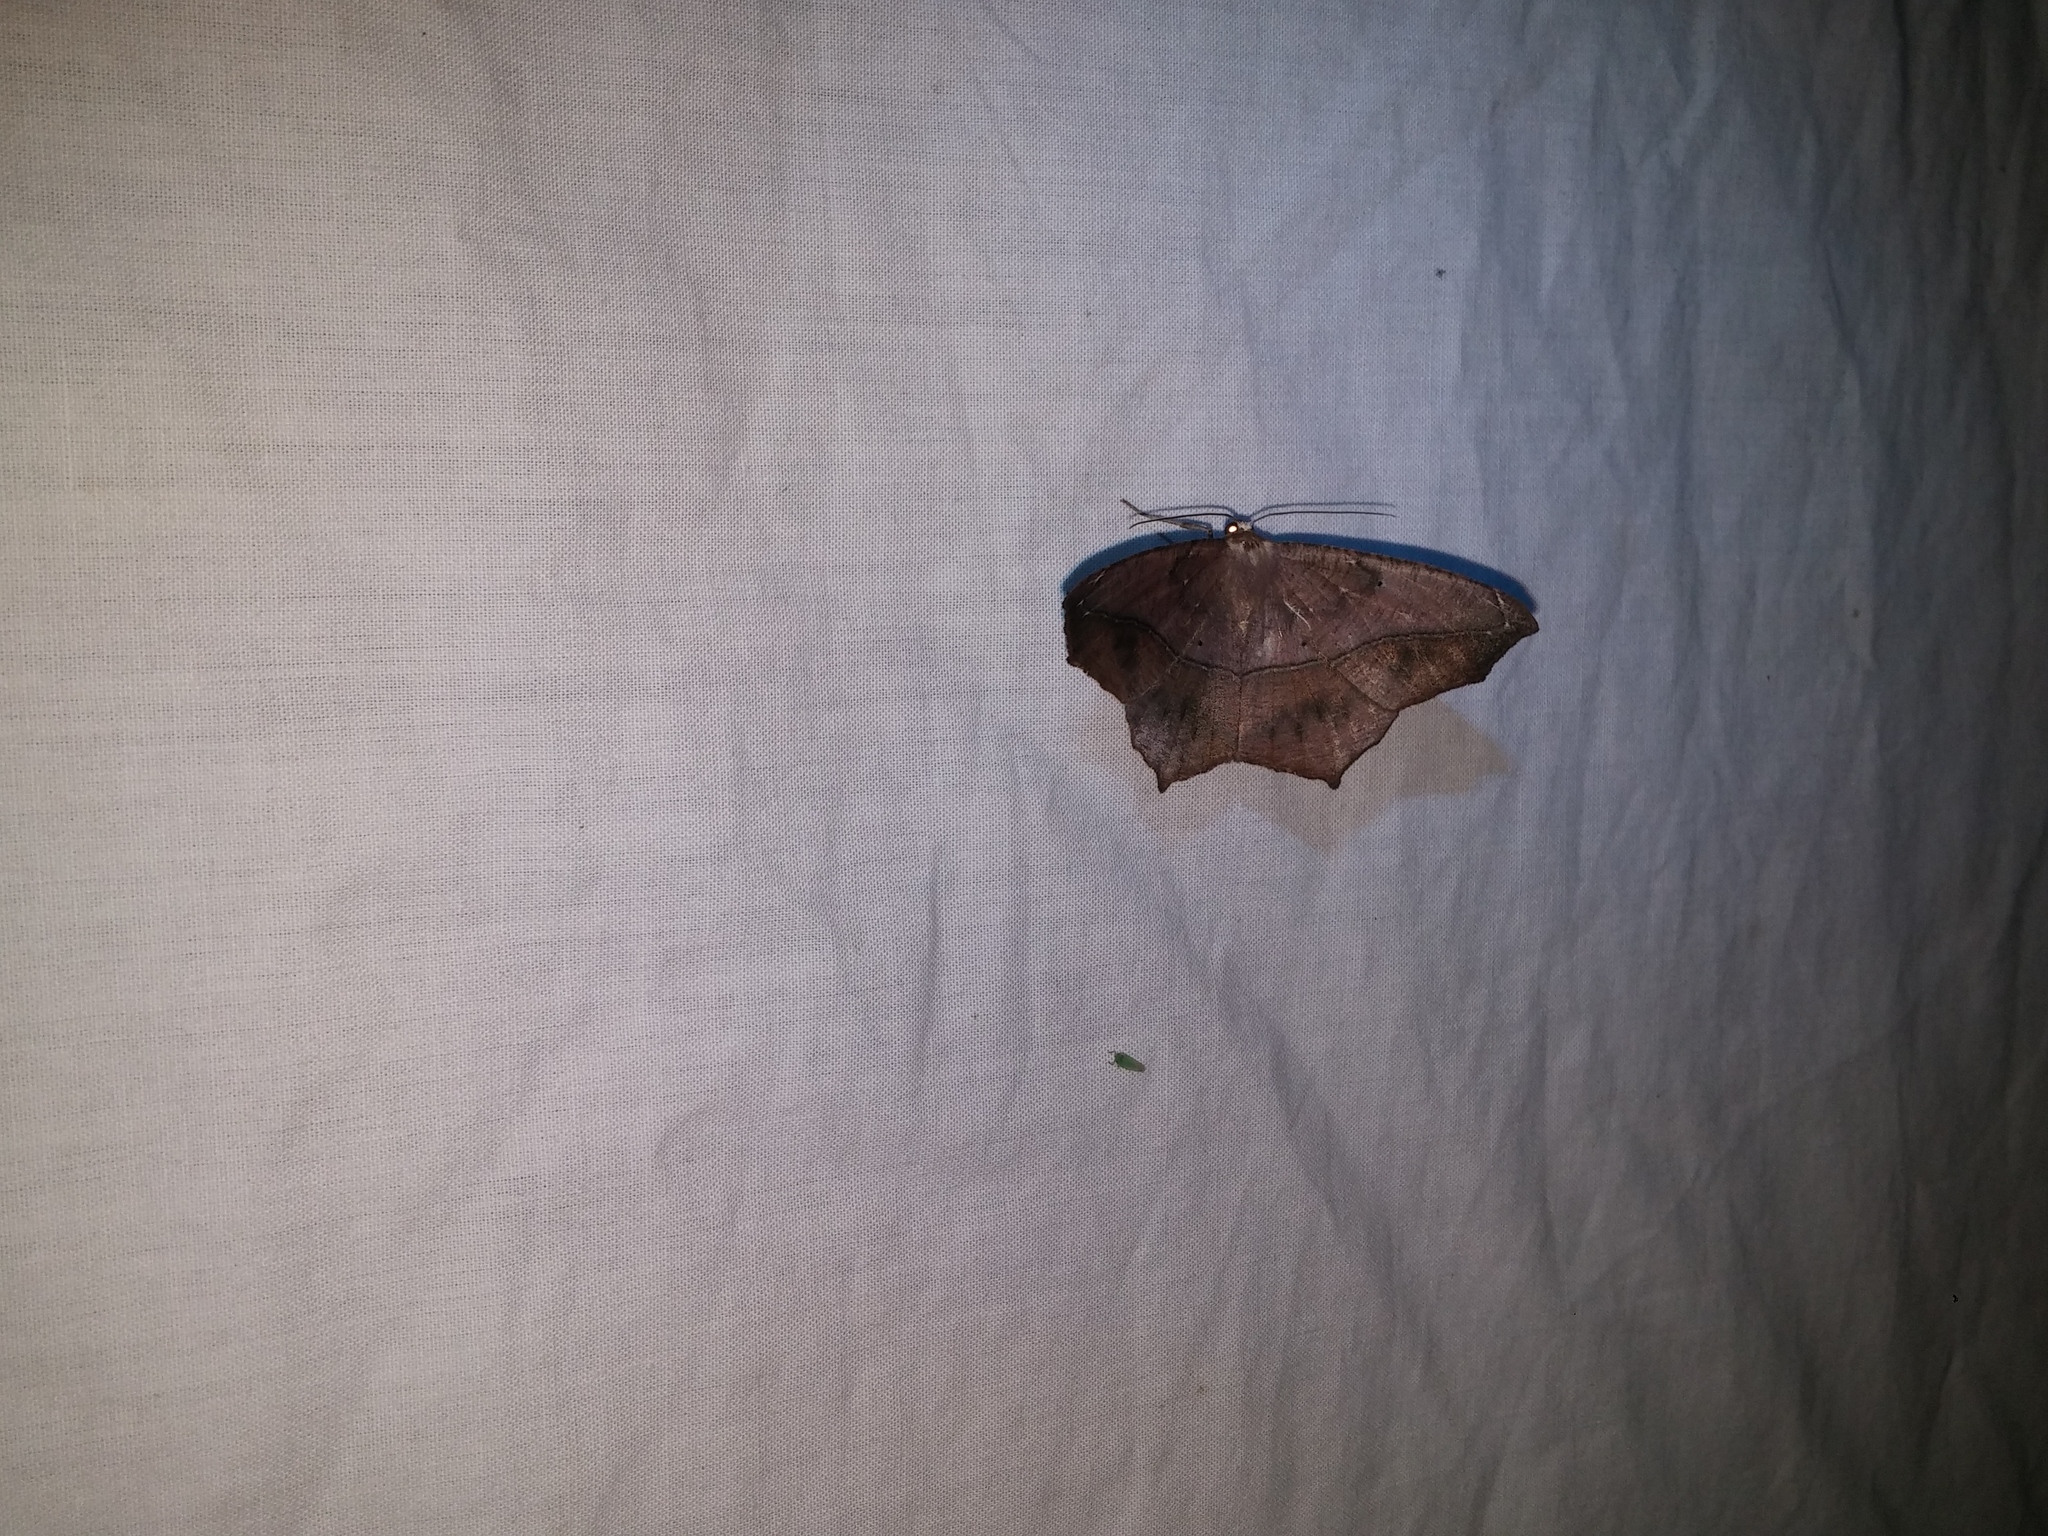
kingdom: Animalia
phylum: Arthropoda
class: Insecta
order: Lepidoptera
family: Geometridae
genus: Prochoerodes
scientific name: Prochoerodes lineola
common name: Large maple spanworm
